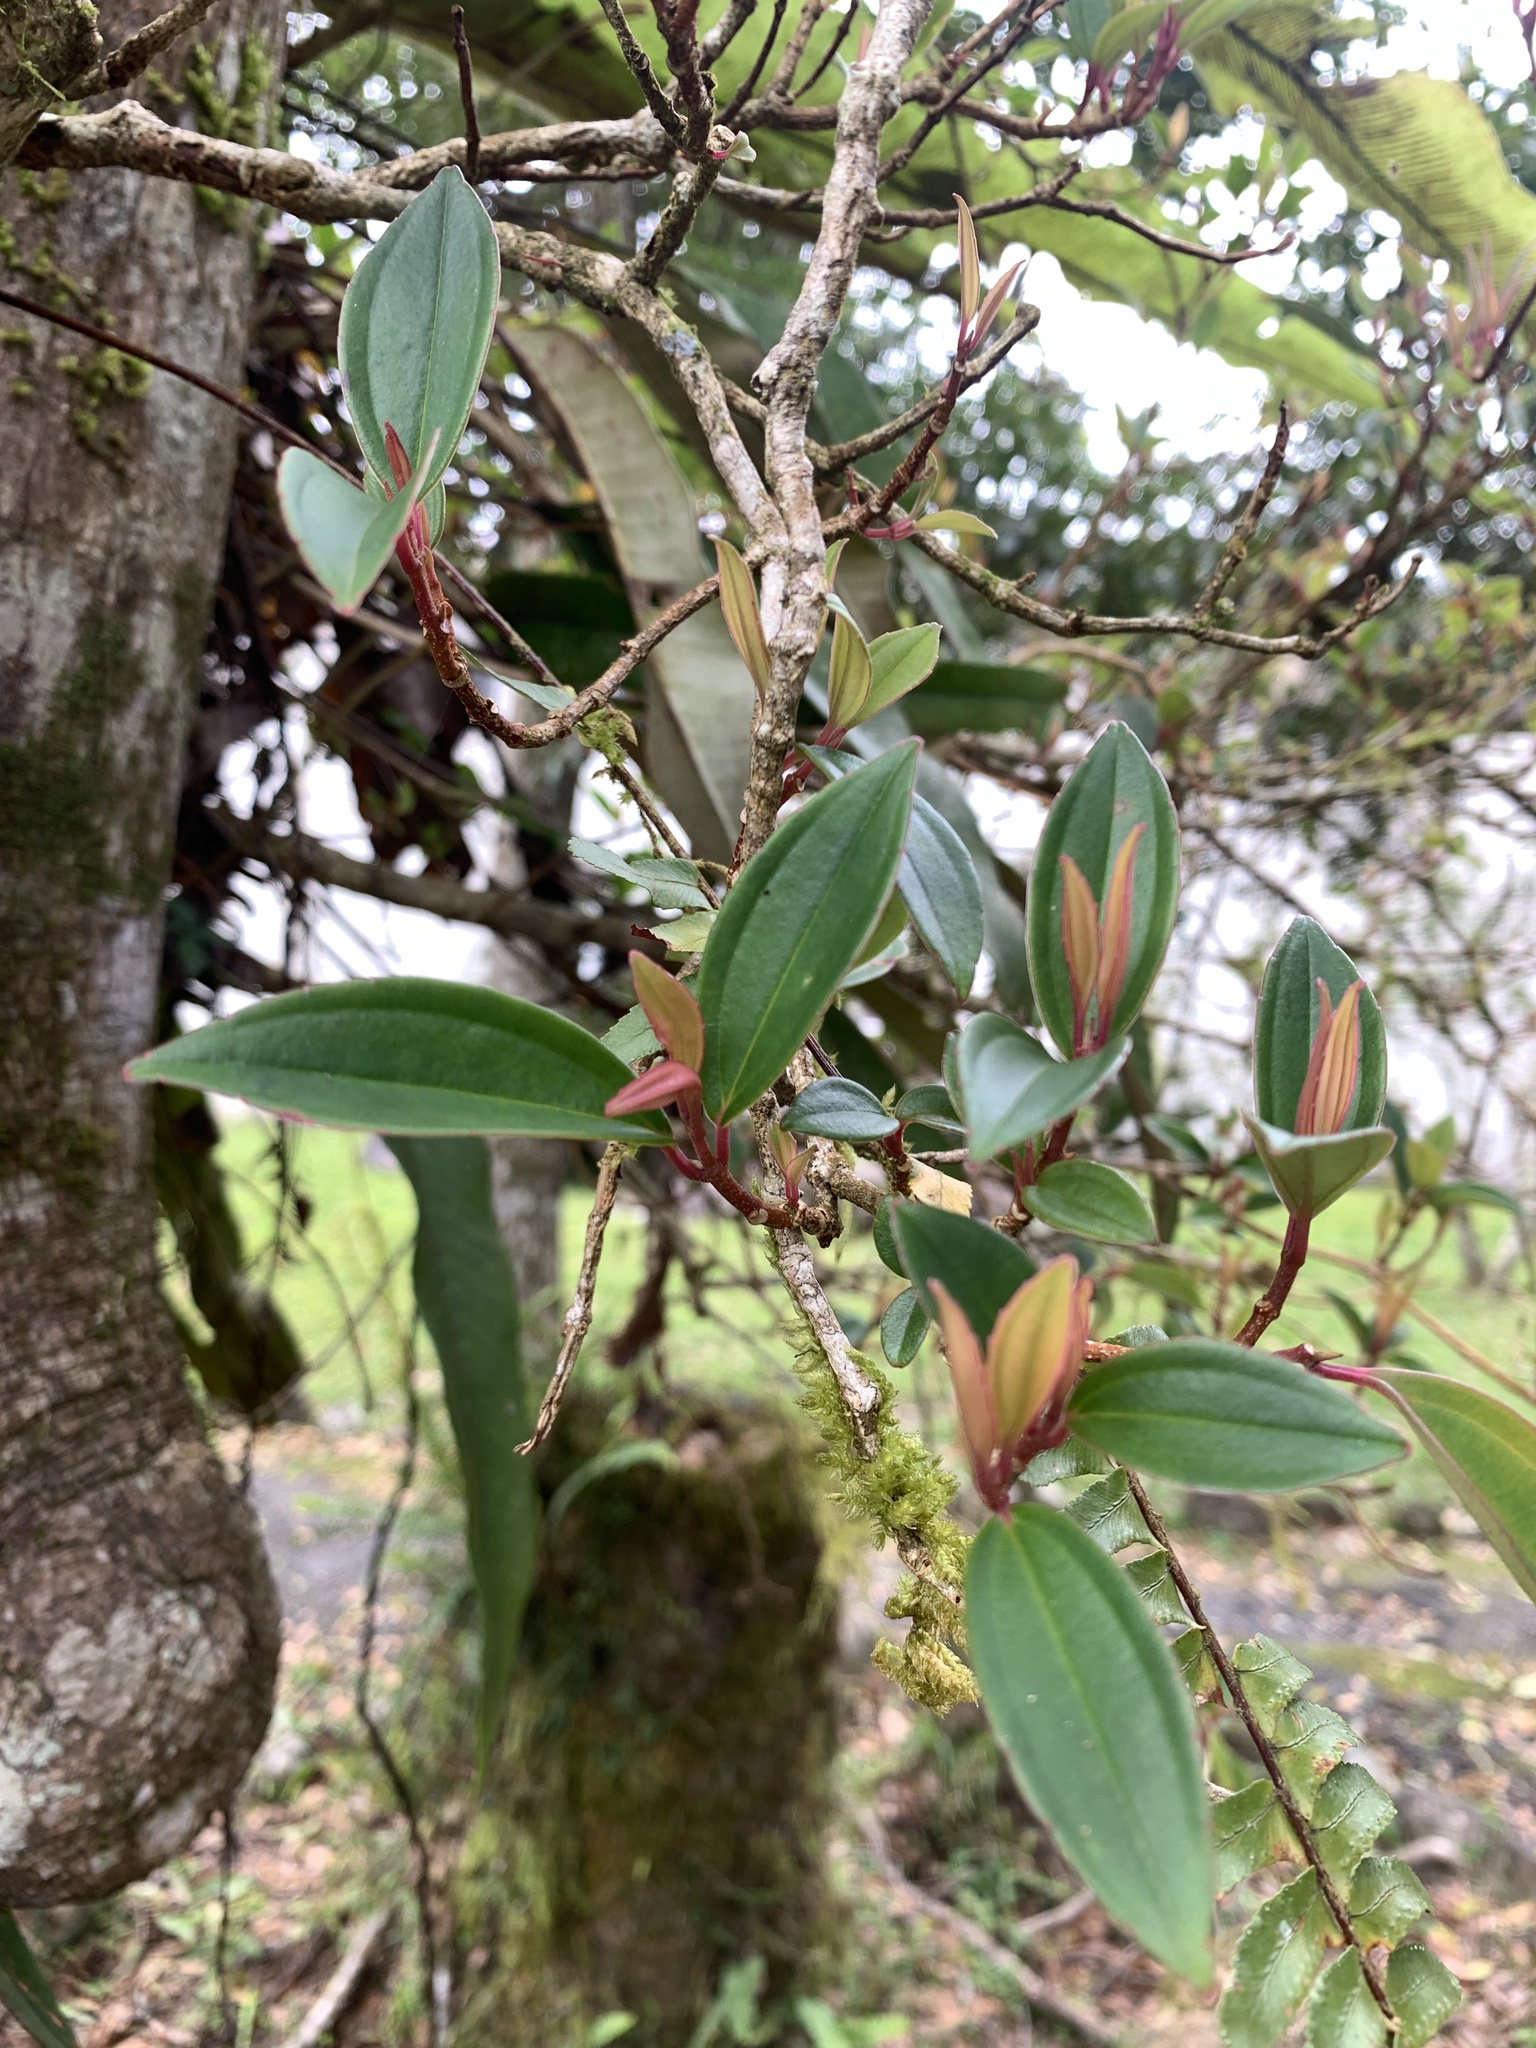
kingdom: Plantae
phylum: Tracheophyta
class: Magnoliopsida
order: Myrtales
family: Melastomataceae
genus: Medinilla
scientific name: Medinilla fengii
